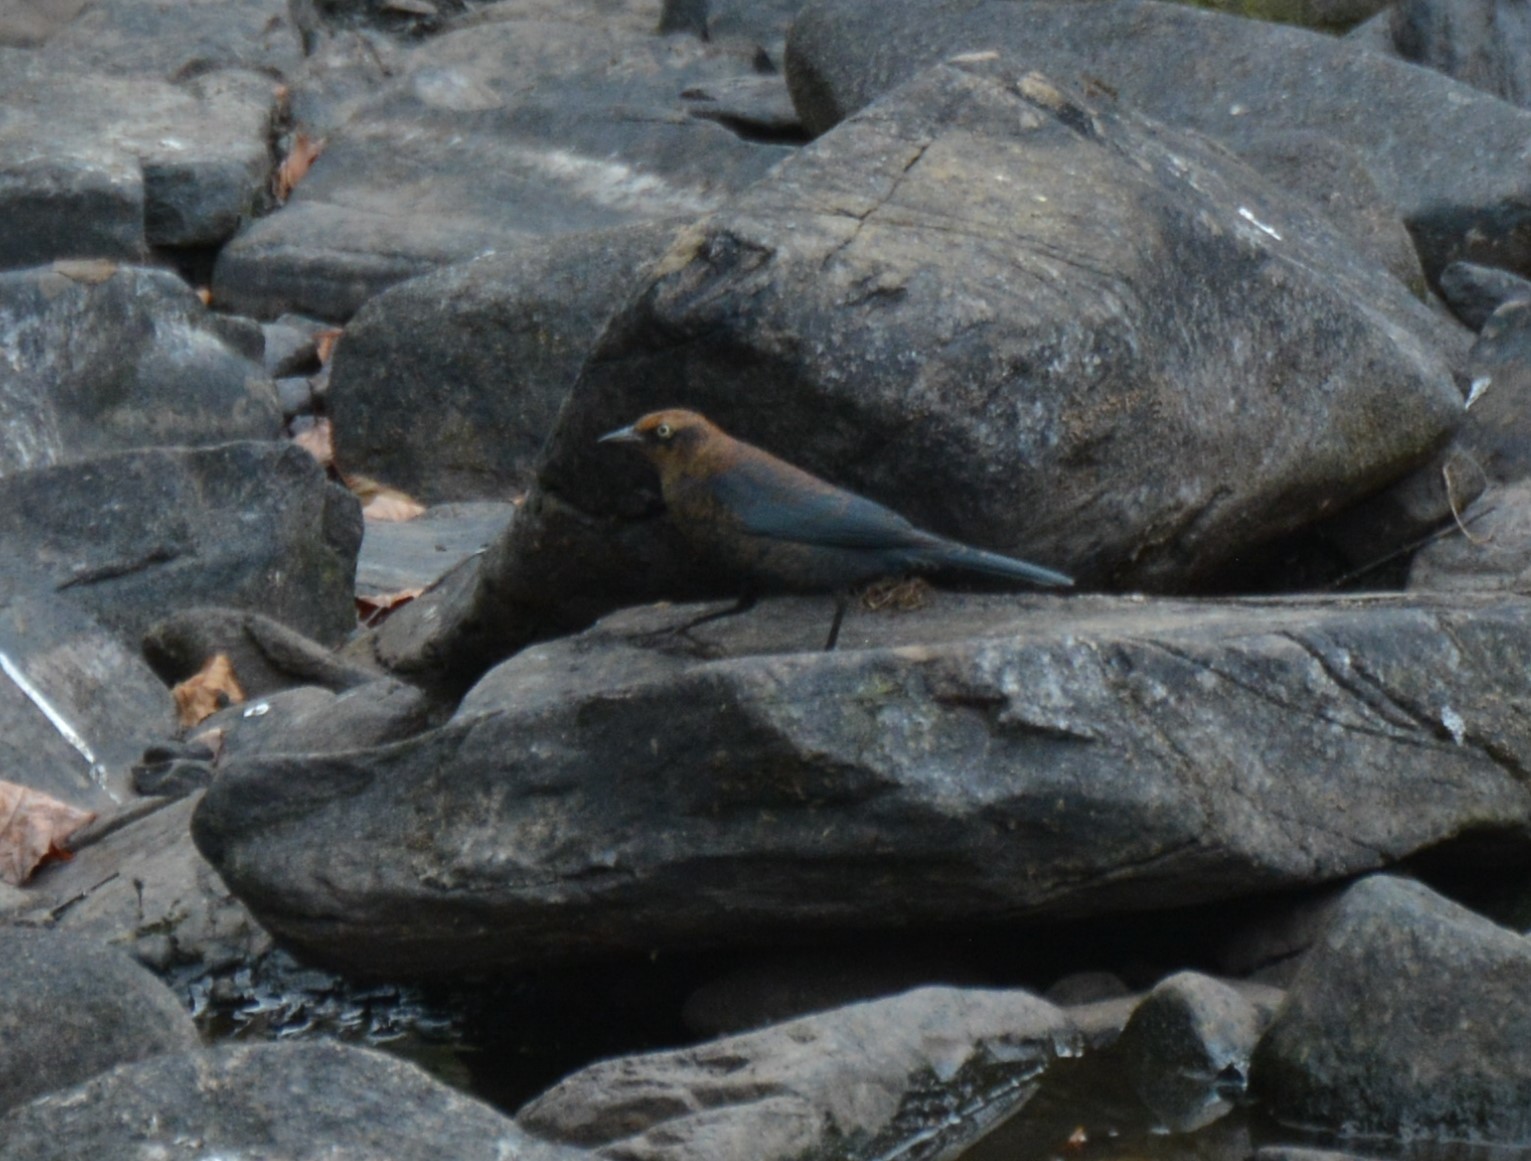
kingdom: Animalia
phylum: Chordata
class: Aves
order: Passeriformes
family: Icteridae
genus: Euphagus
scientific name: Euphagus carolinus
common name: Rusty blackbird
